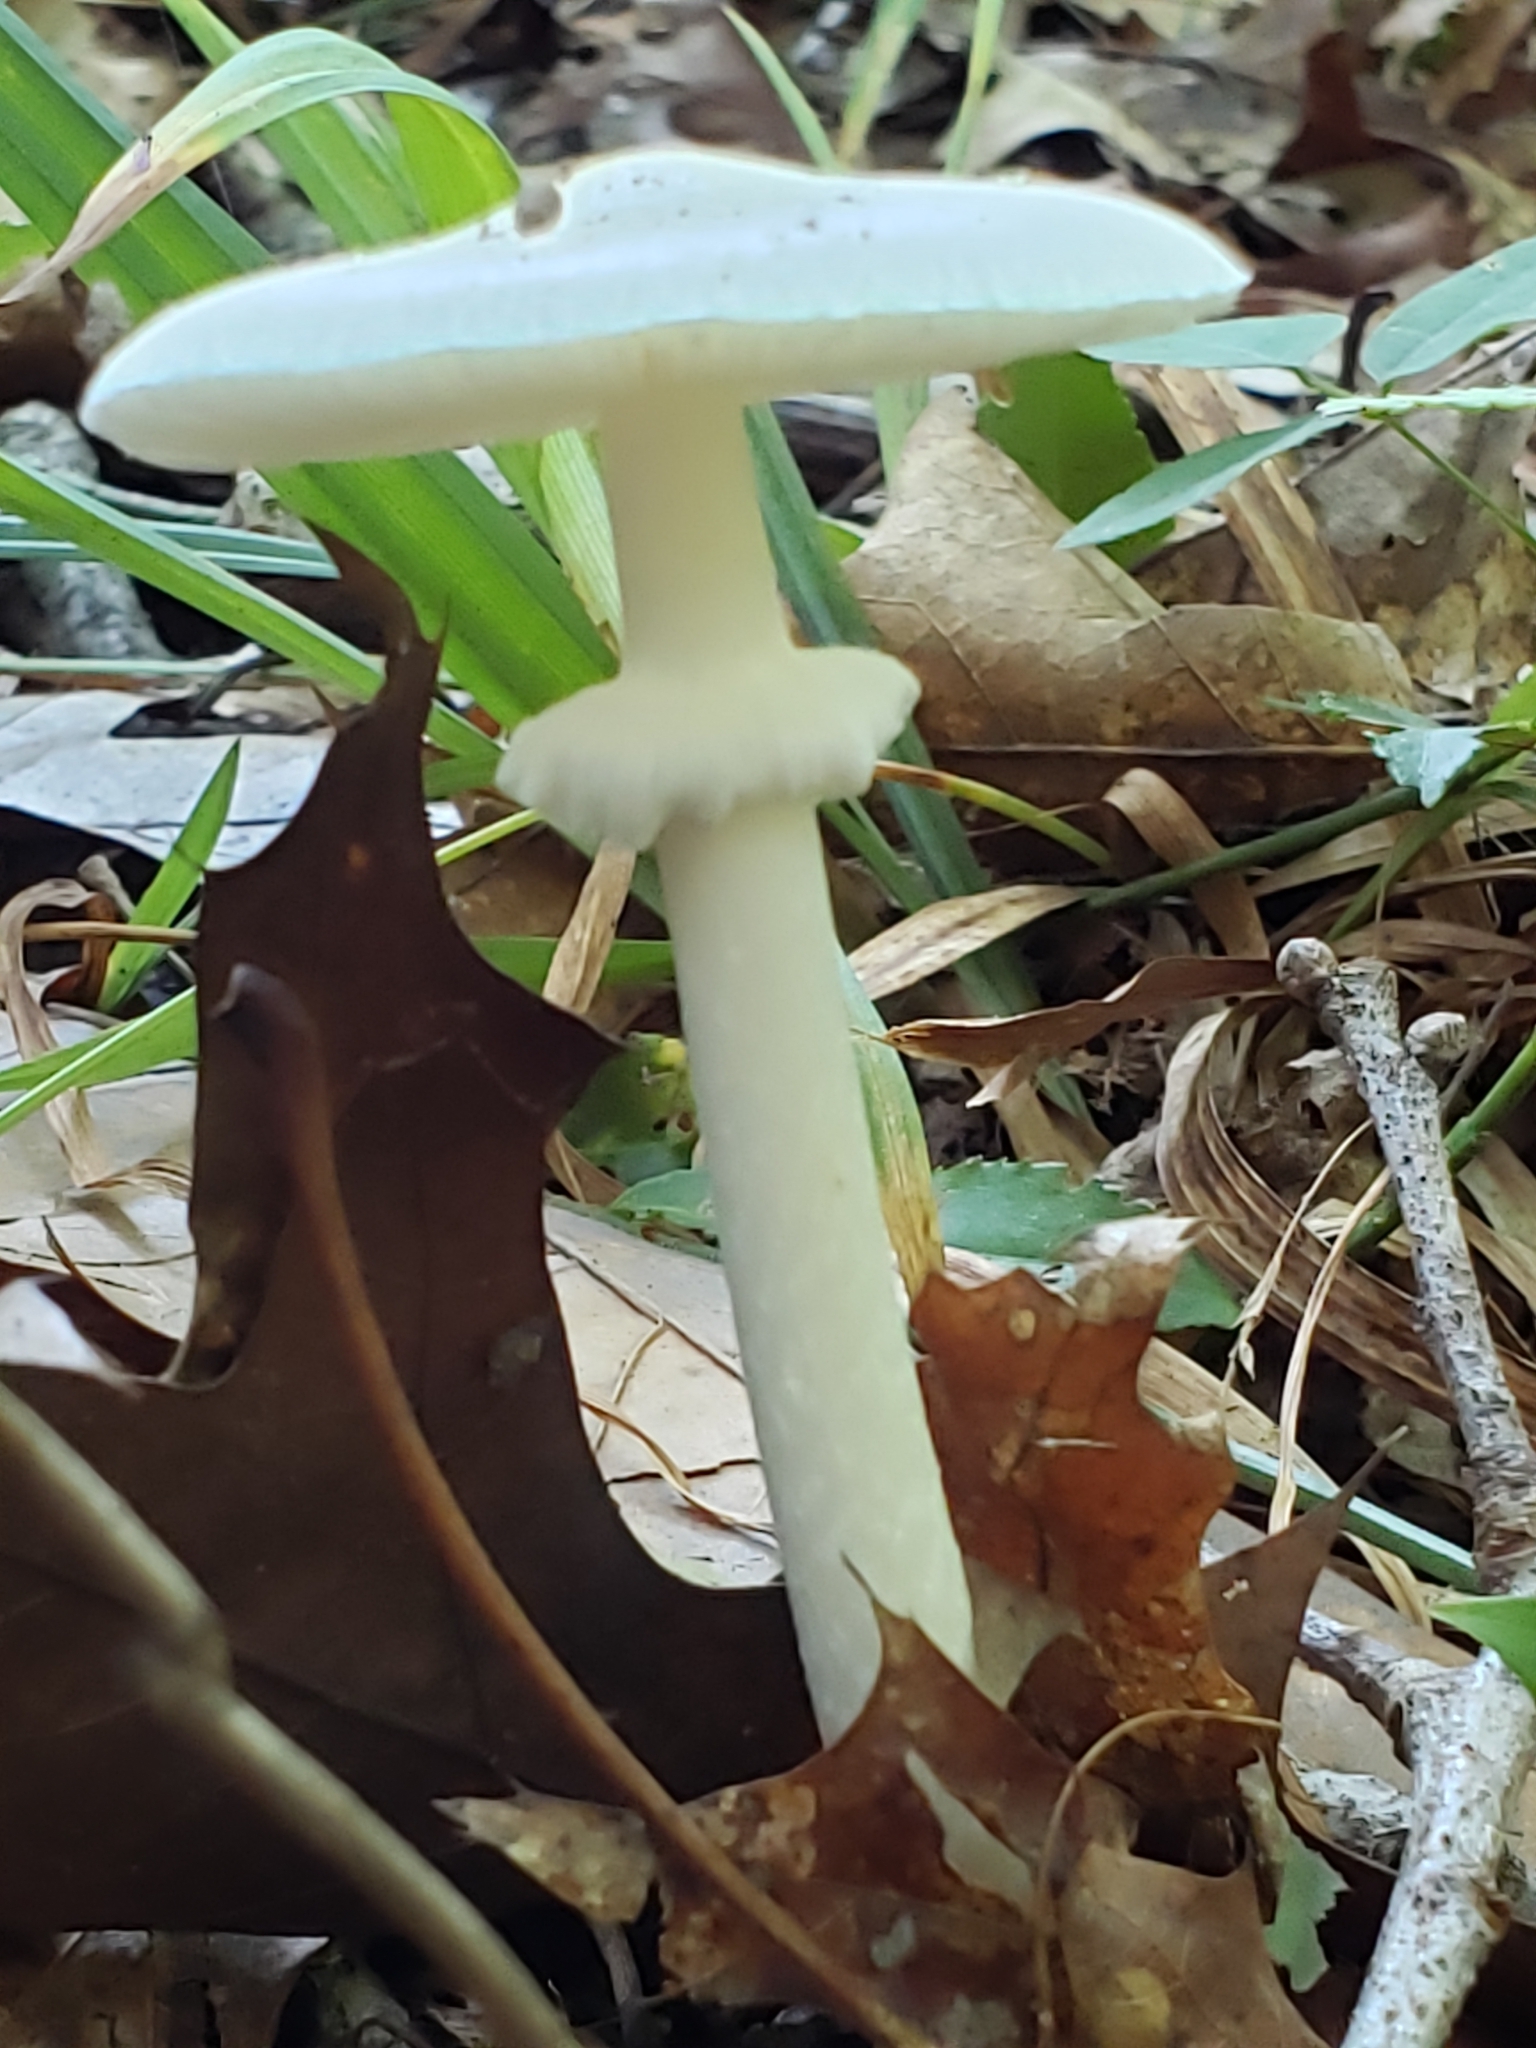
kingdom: Fungi
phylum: Basidiomycota
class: Agaricomycetes
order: Agaricales
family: Amanitaceae
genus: Amanita
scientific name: Amanita bisporigera
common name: Eastern north american destroying angel
